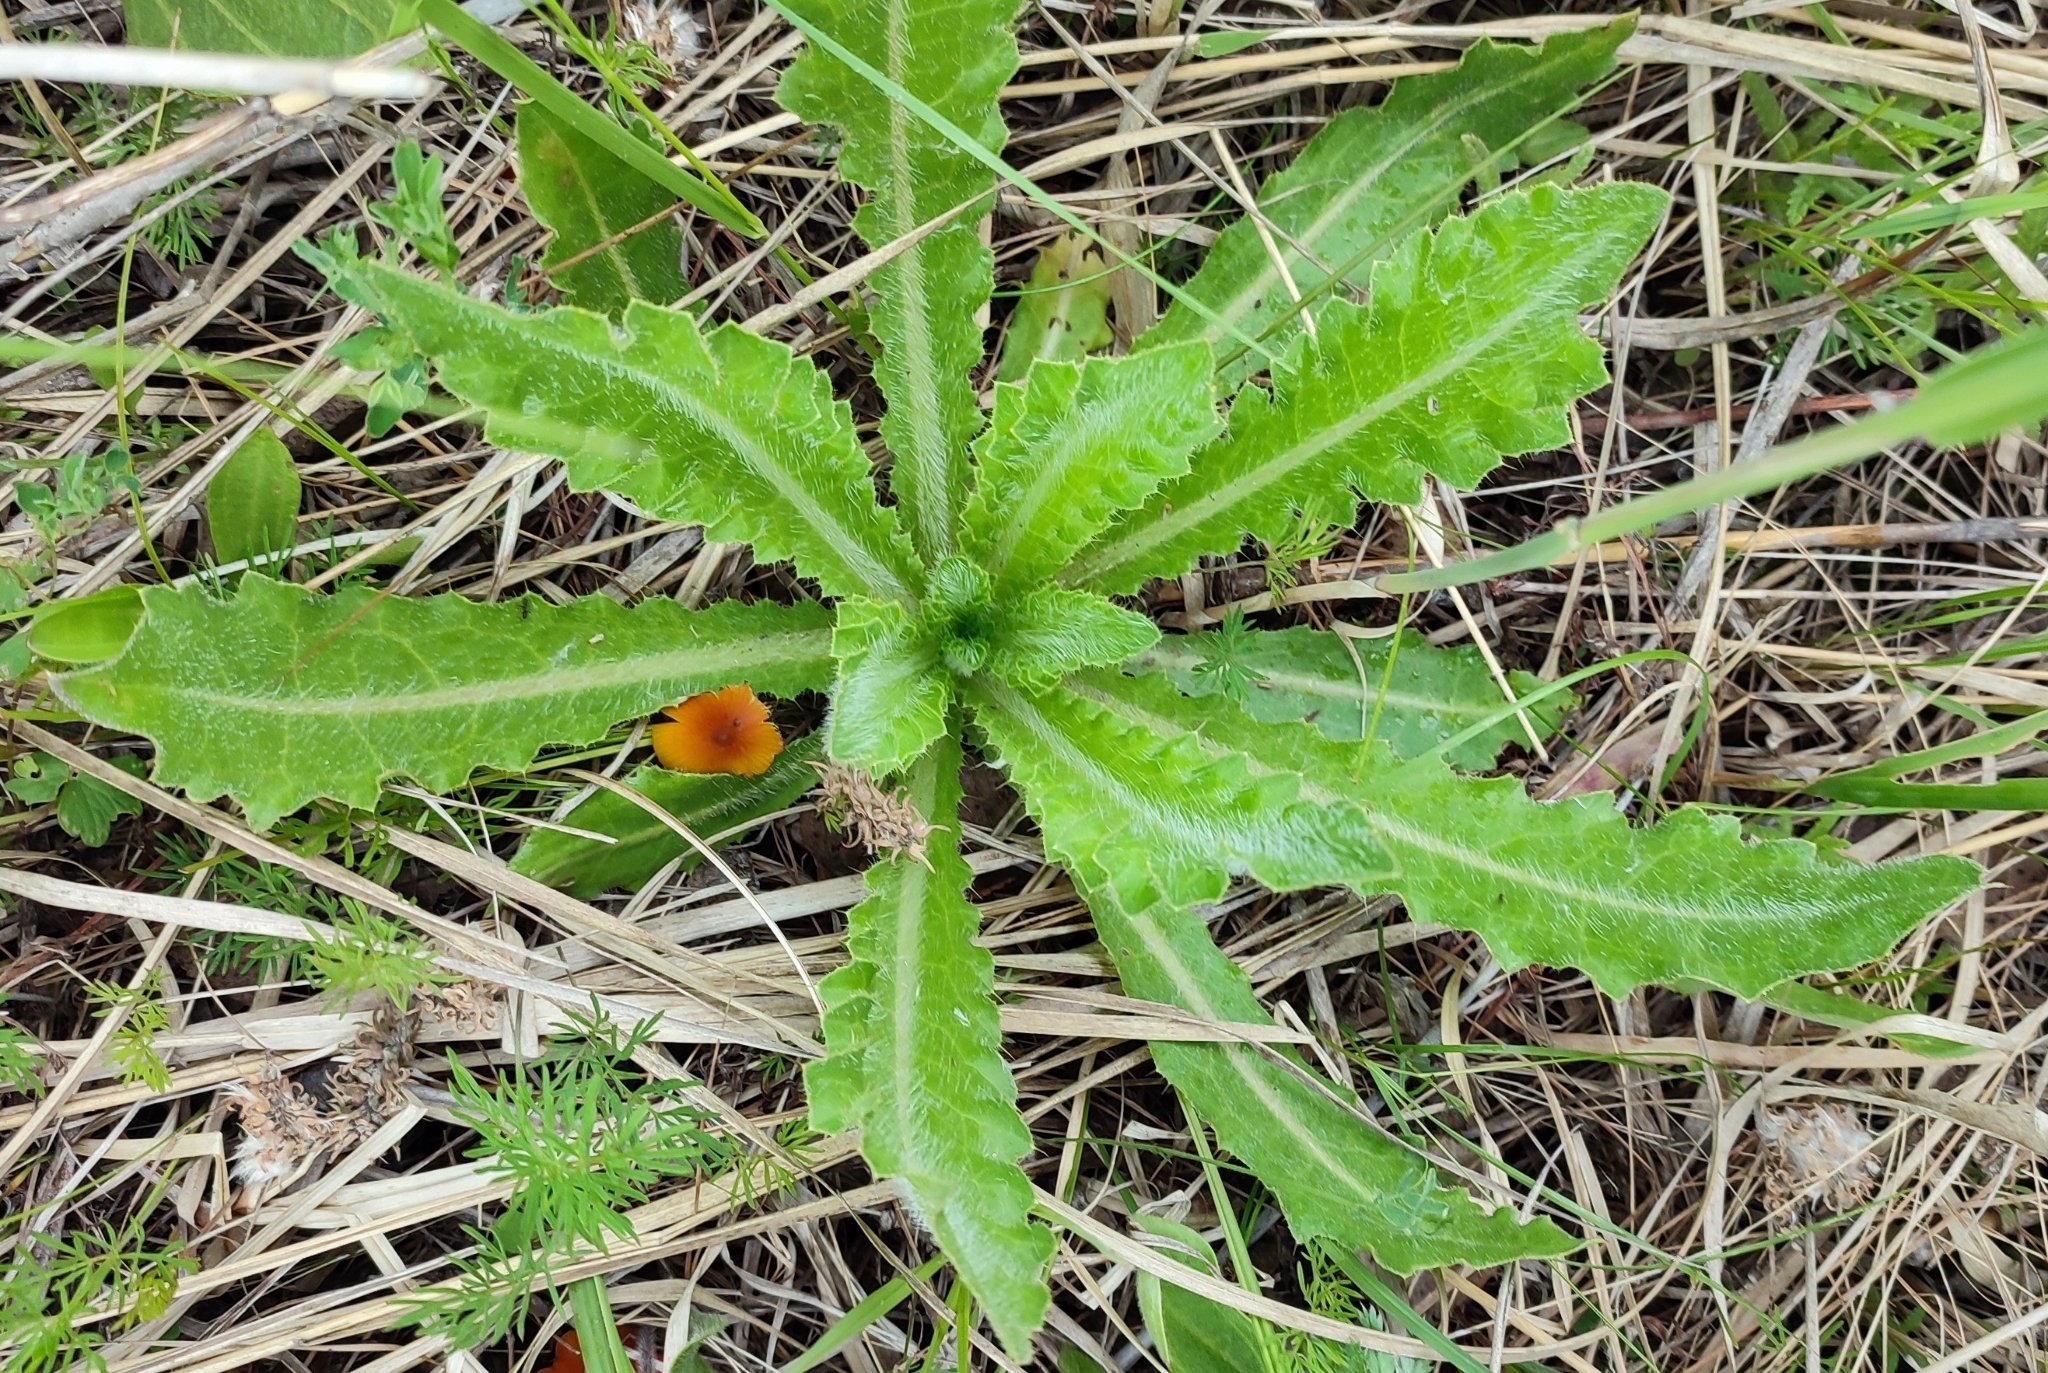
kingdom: Plantae
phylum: Tracheophyta
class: Magnoliopsida
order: Asterales
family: Asteraceae
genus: Cirsium
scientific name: Cirsium esculentum
